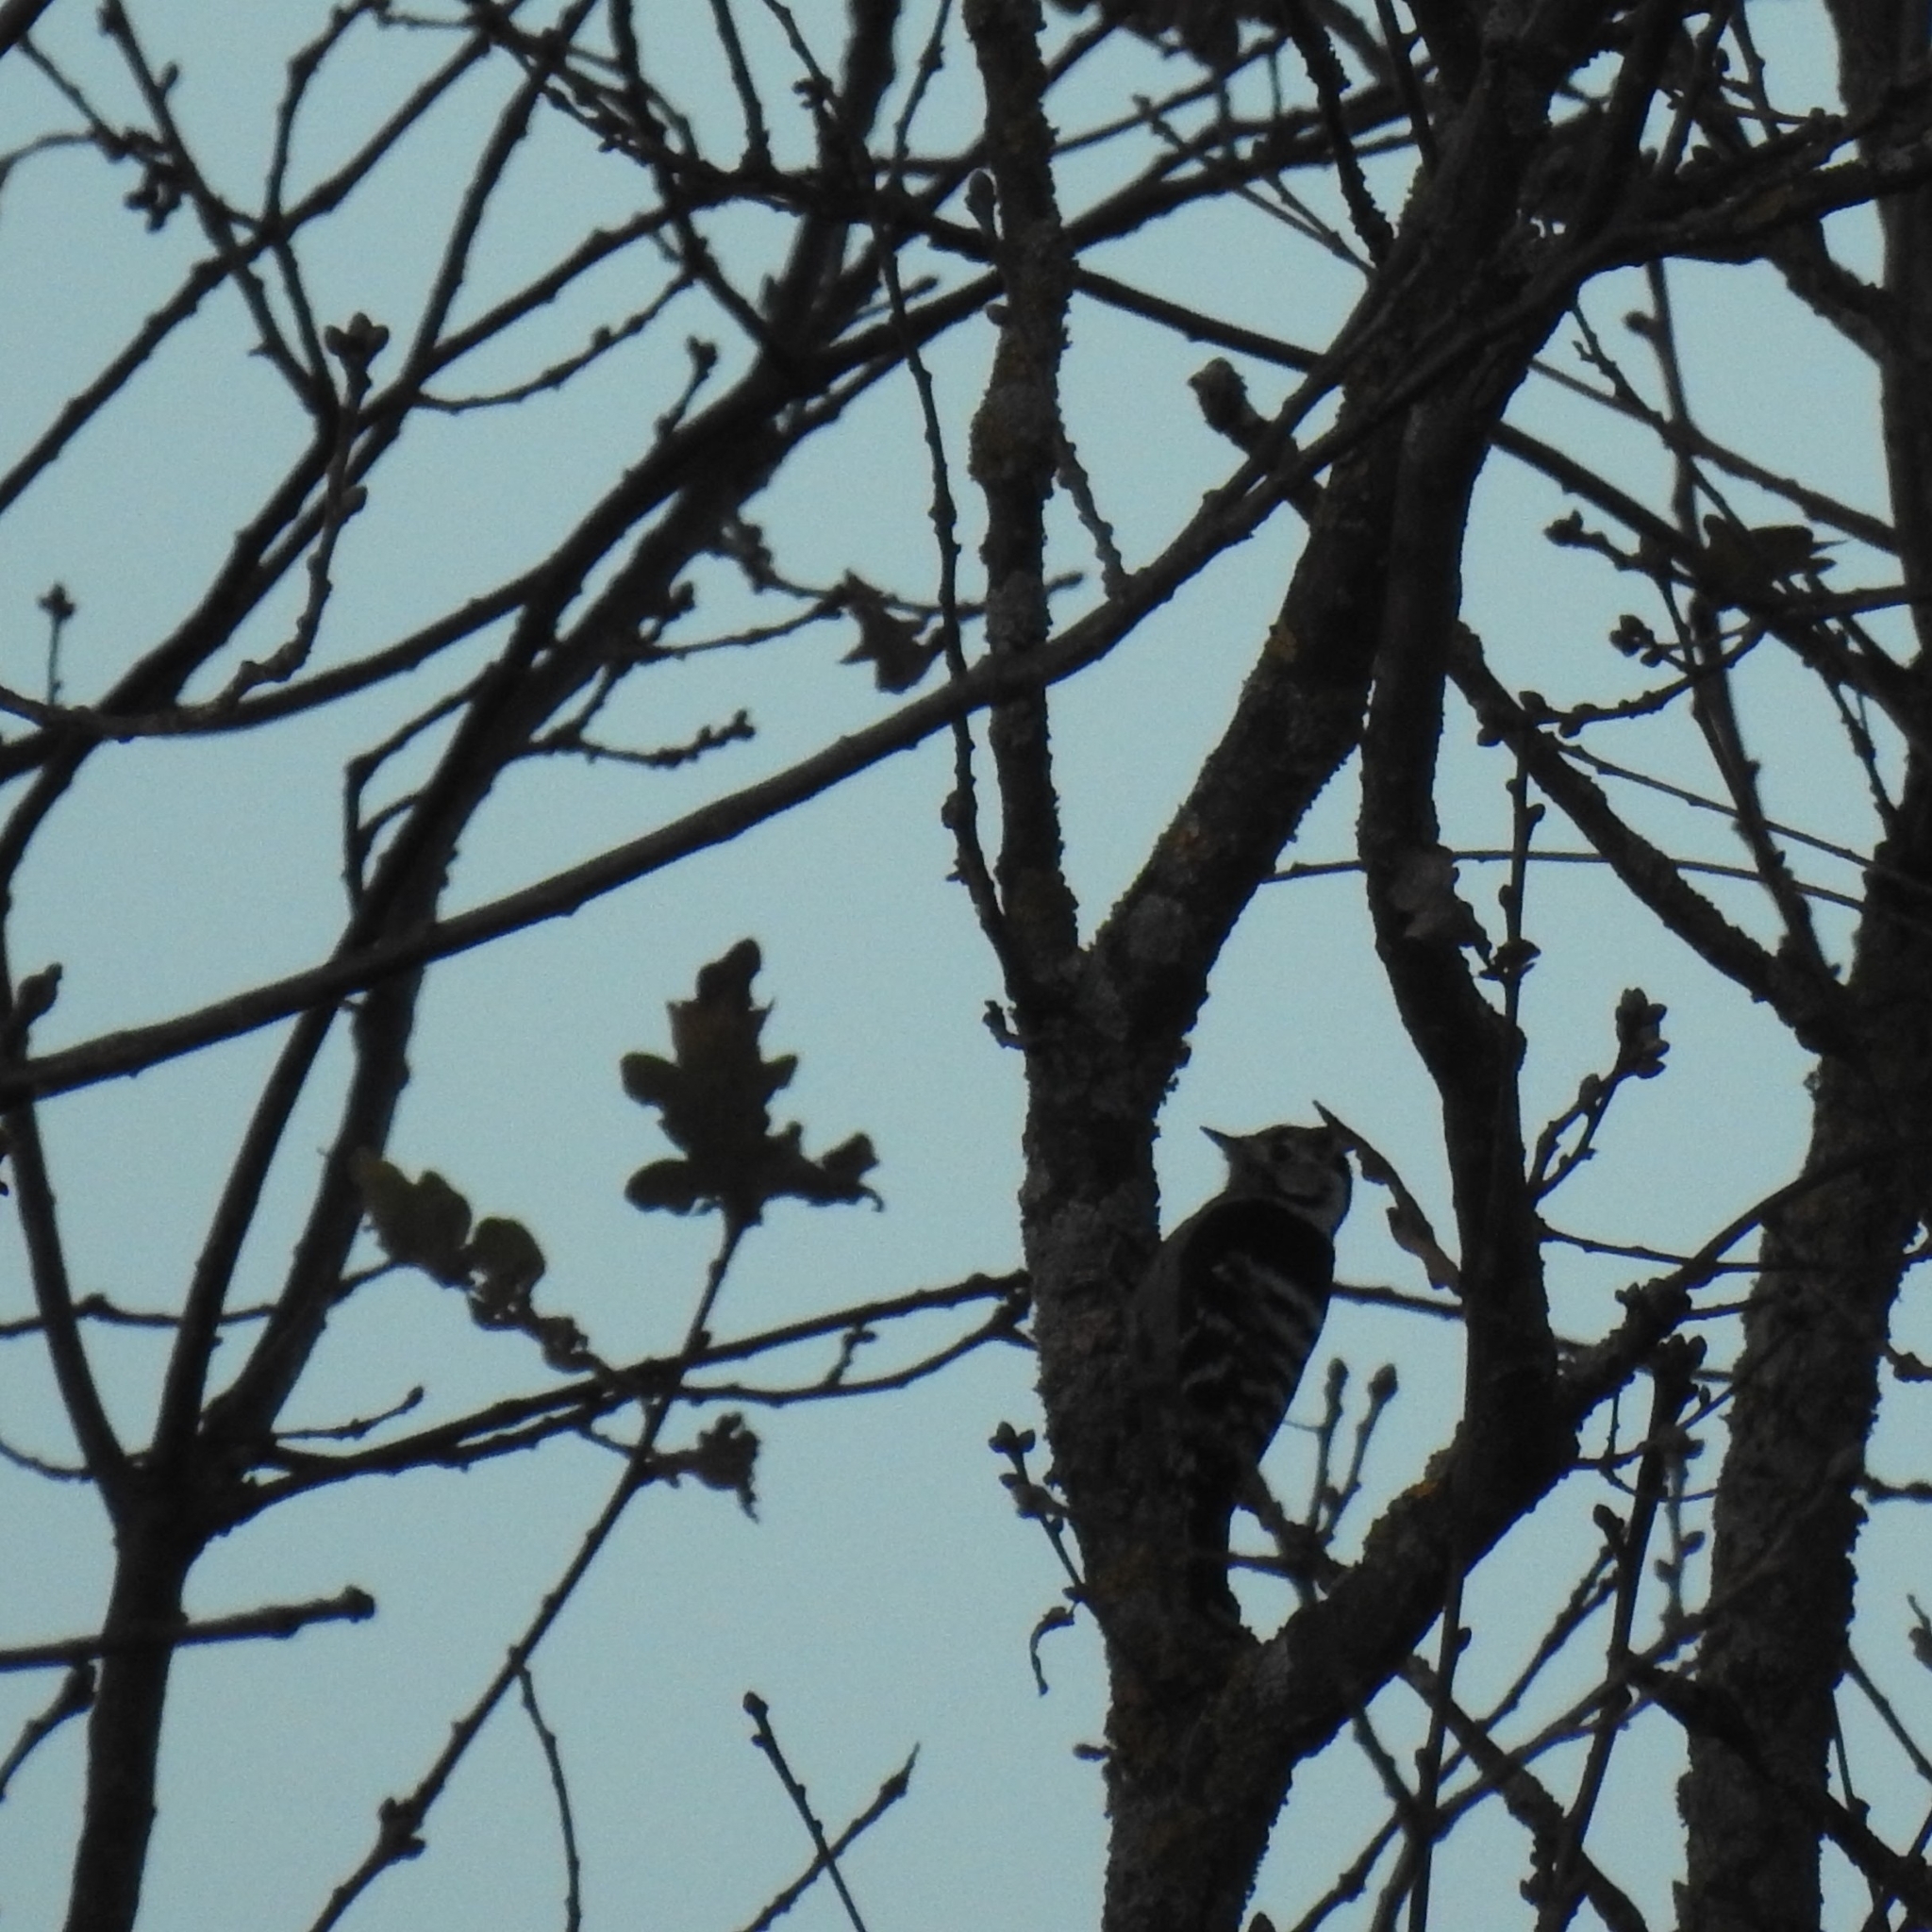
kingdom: Animalia
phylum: Chordata
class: Aves
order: Piciformes
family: Picidae
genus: Dryobates
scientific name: Dryobates minor
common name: Lesser spotted woodpecker
